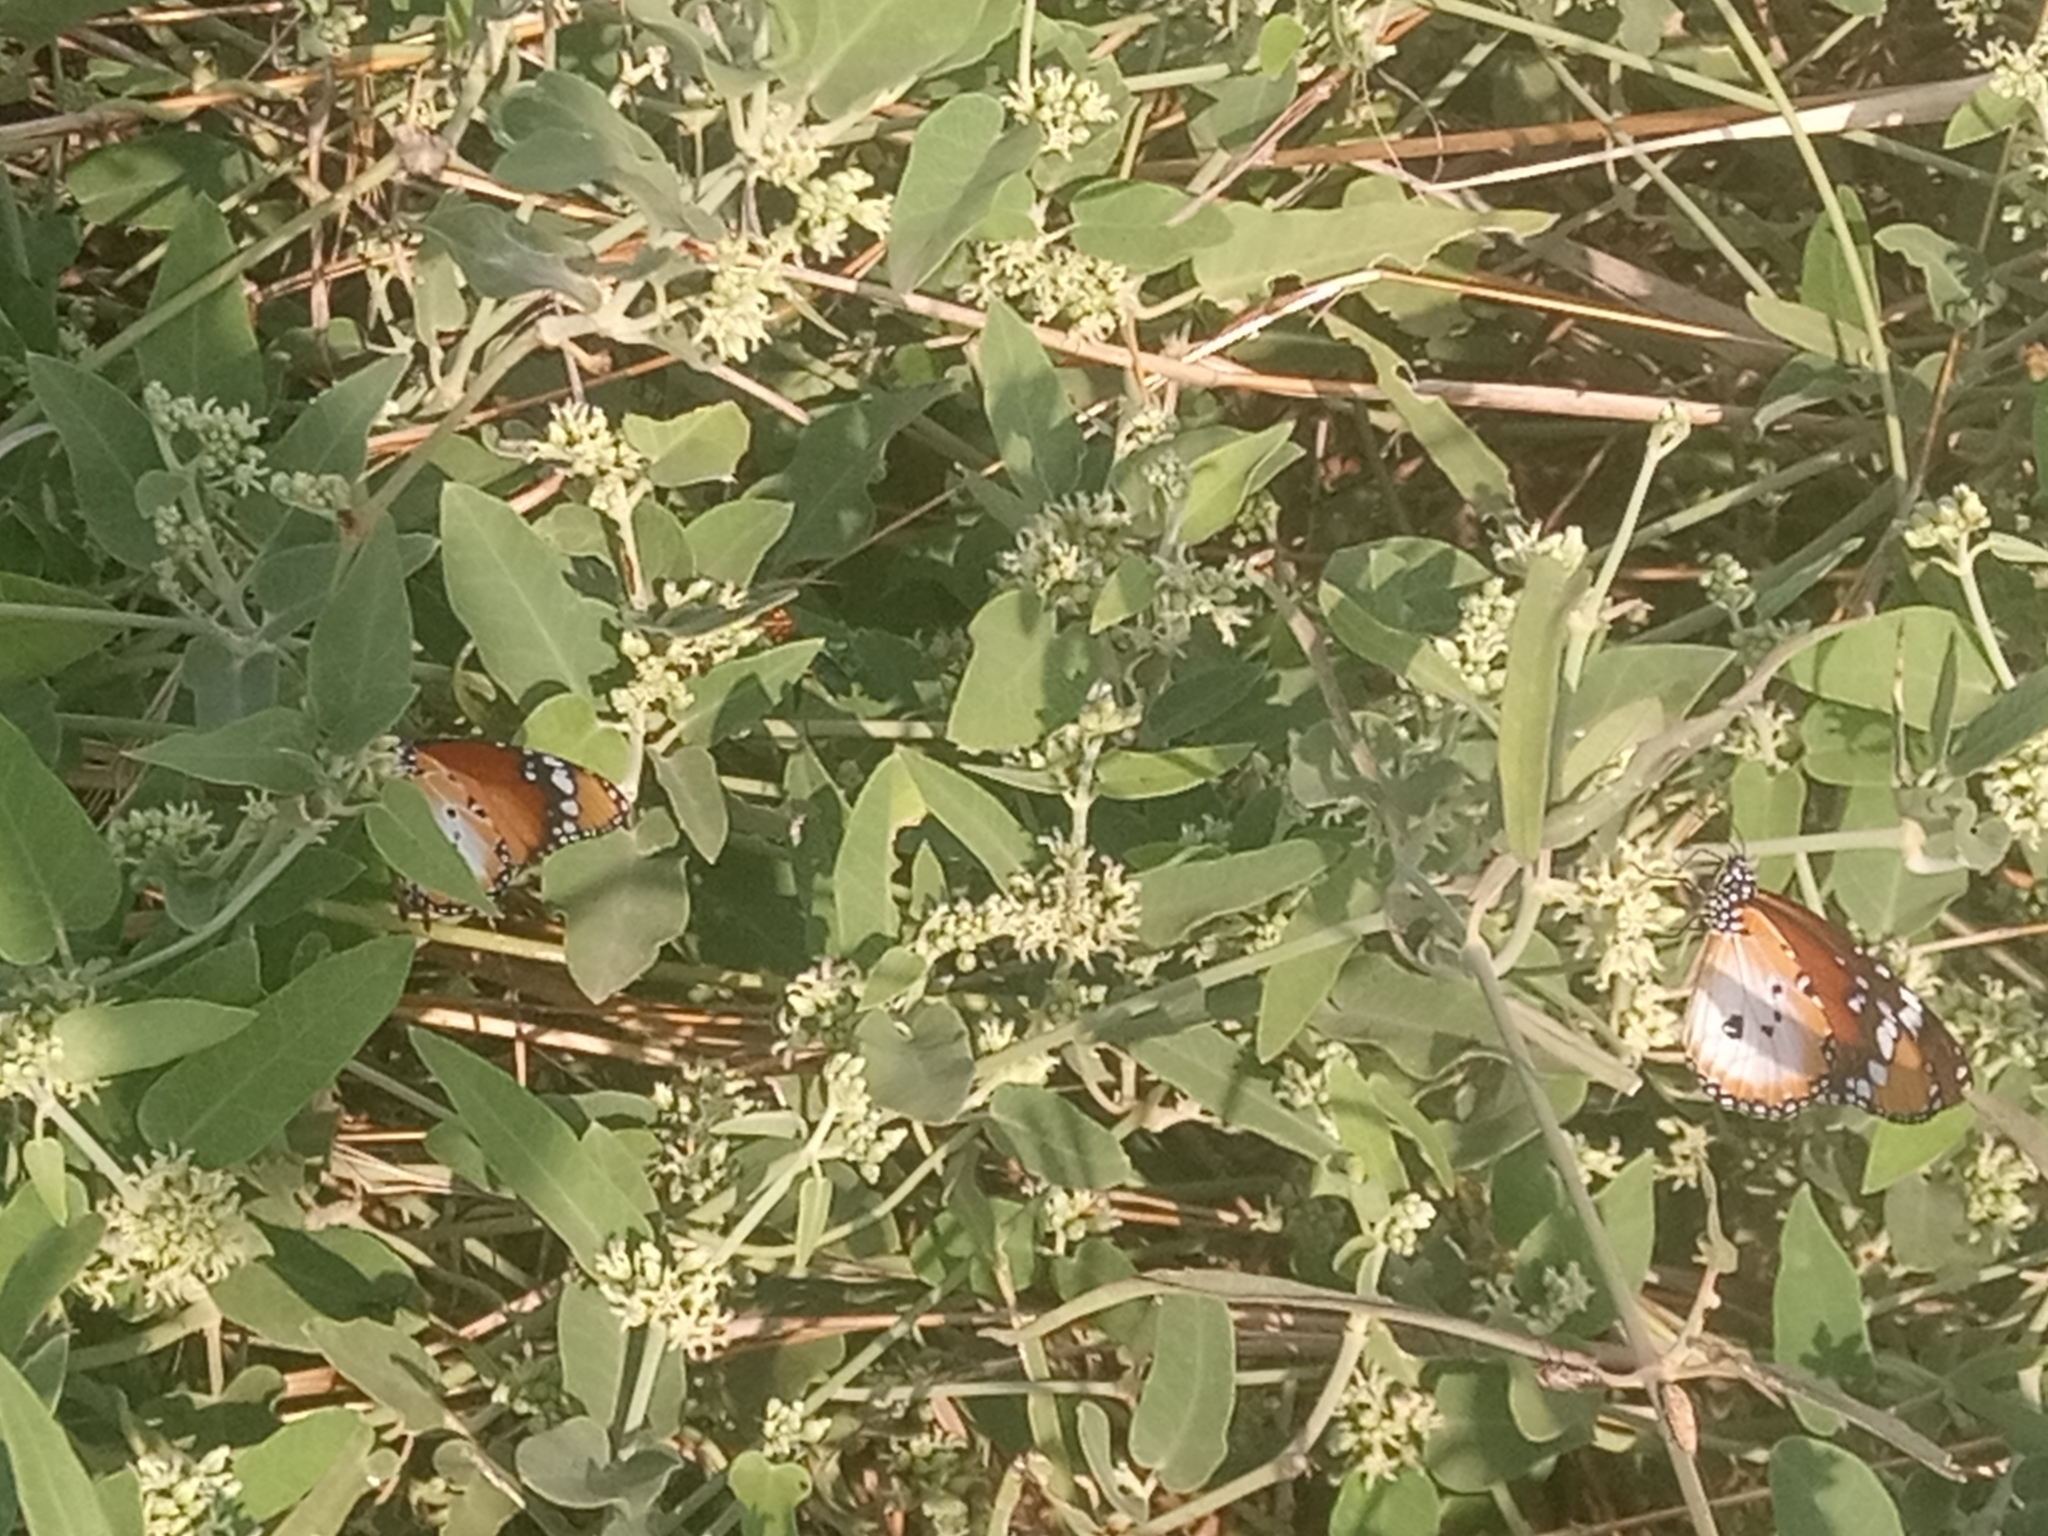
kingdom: Animalia
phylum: Arthropoda
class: Insecta
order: Lepidoptera
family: Nymphalidae
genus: Danaus
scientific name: Danaus chrysippus
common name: Plain tiger
